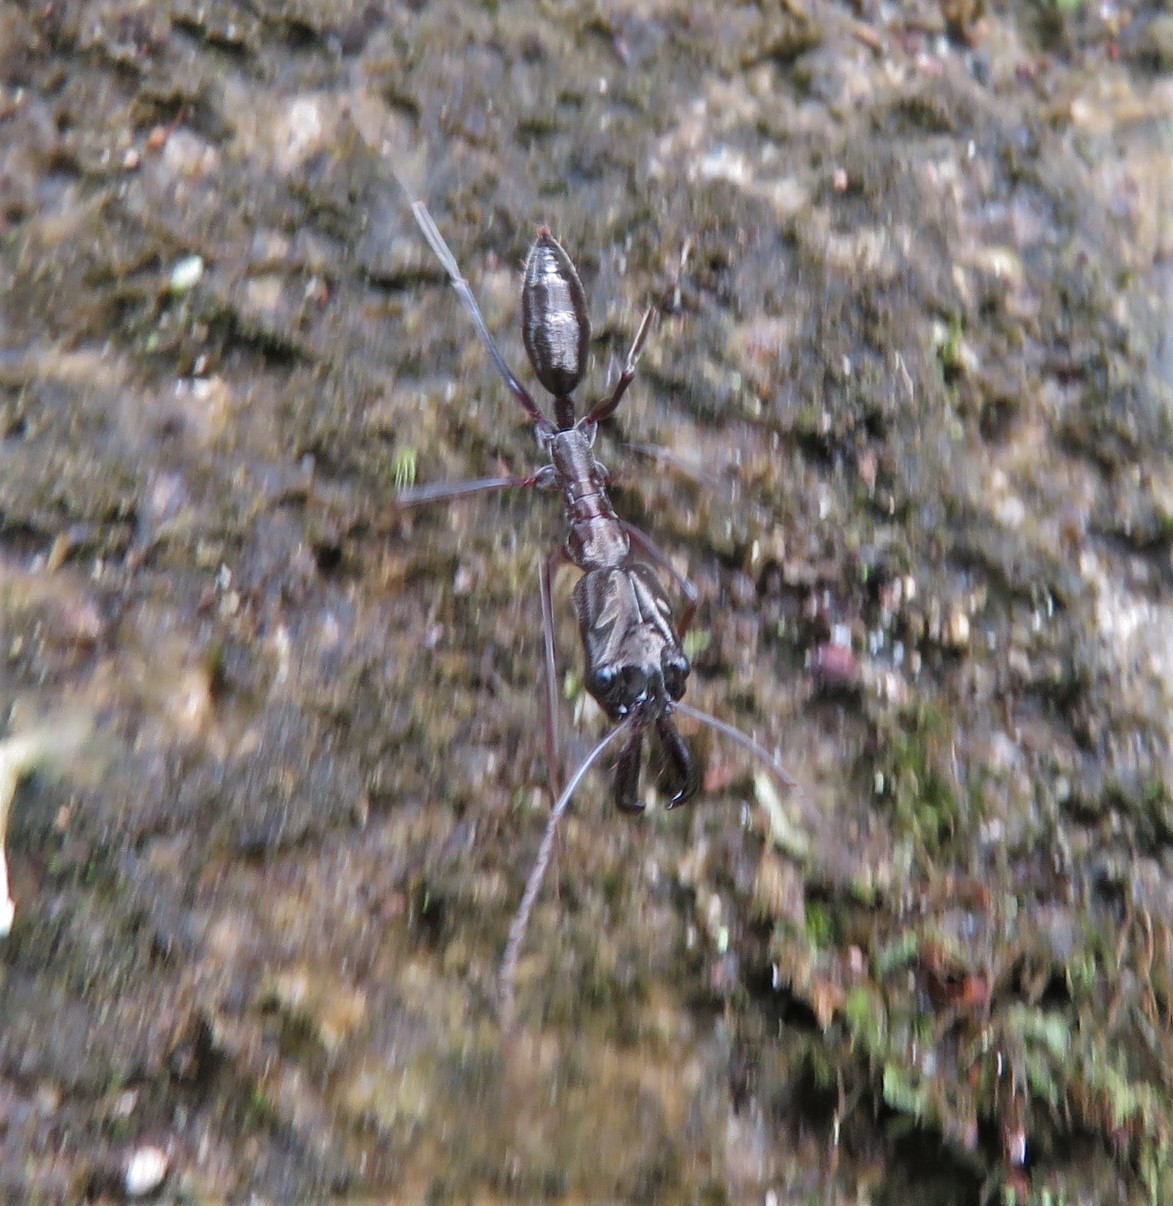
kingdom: Animalia
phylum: Arthropoda
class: Insecta
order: Hymenoptera
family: Formicidae
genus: Odontomachus
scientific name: Odontomachus chelifer
